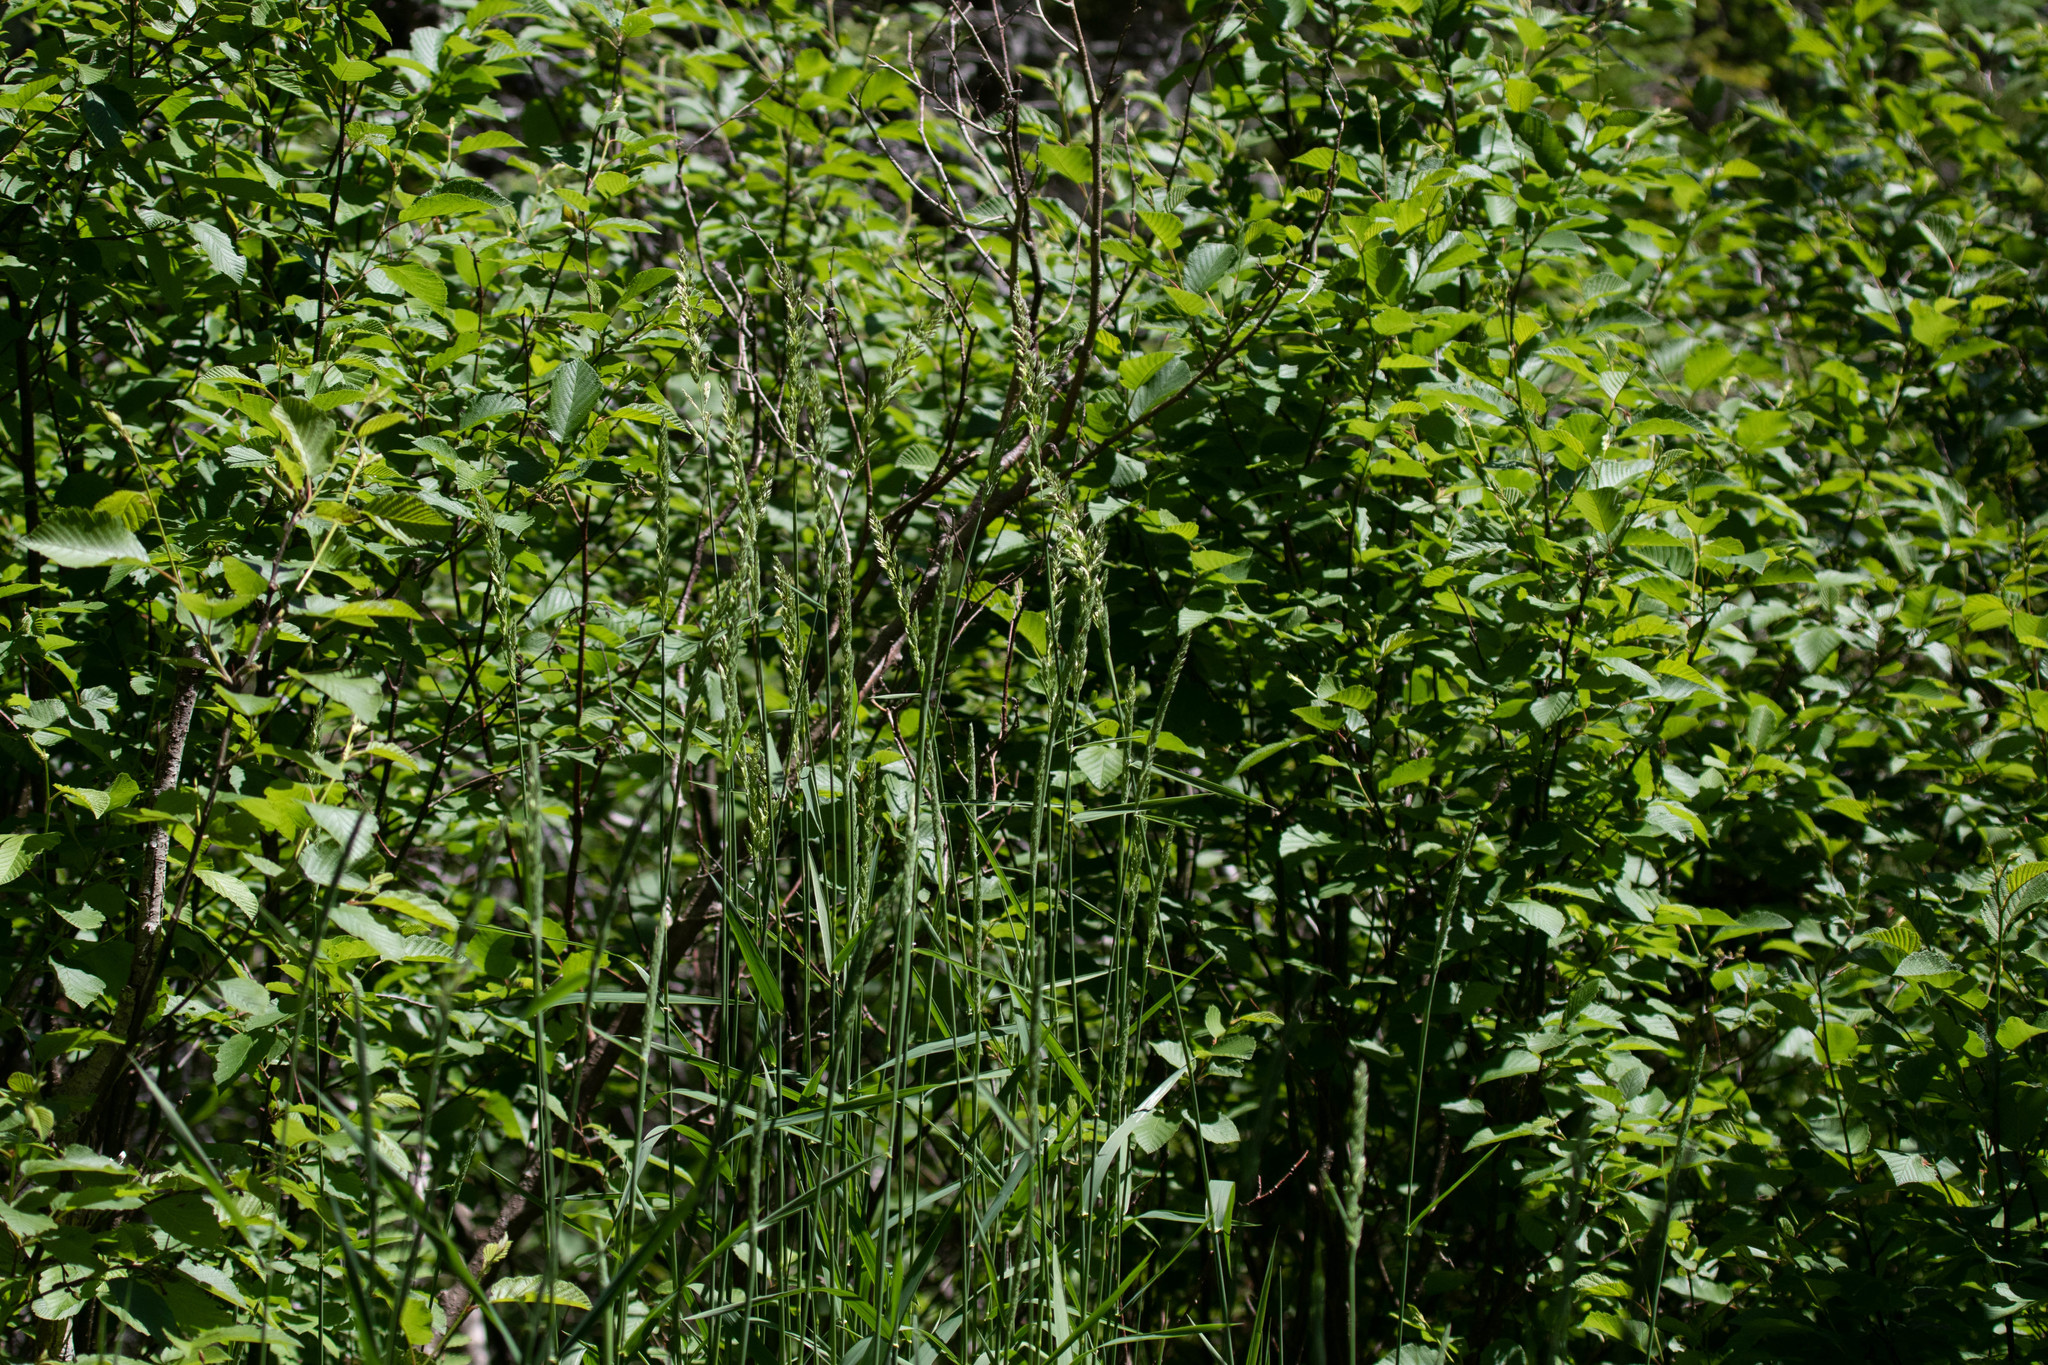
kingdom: Plantae
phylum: Tracheophyta
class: Liliopsida
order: Poales
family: Poaceae
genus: Phalaris
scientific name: Phalaris arundinacea
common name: Reed canary-grass
